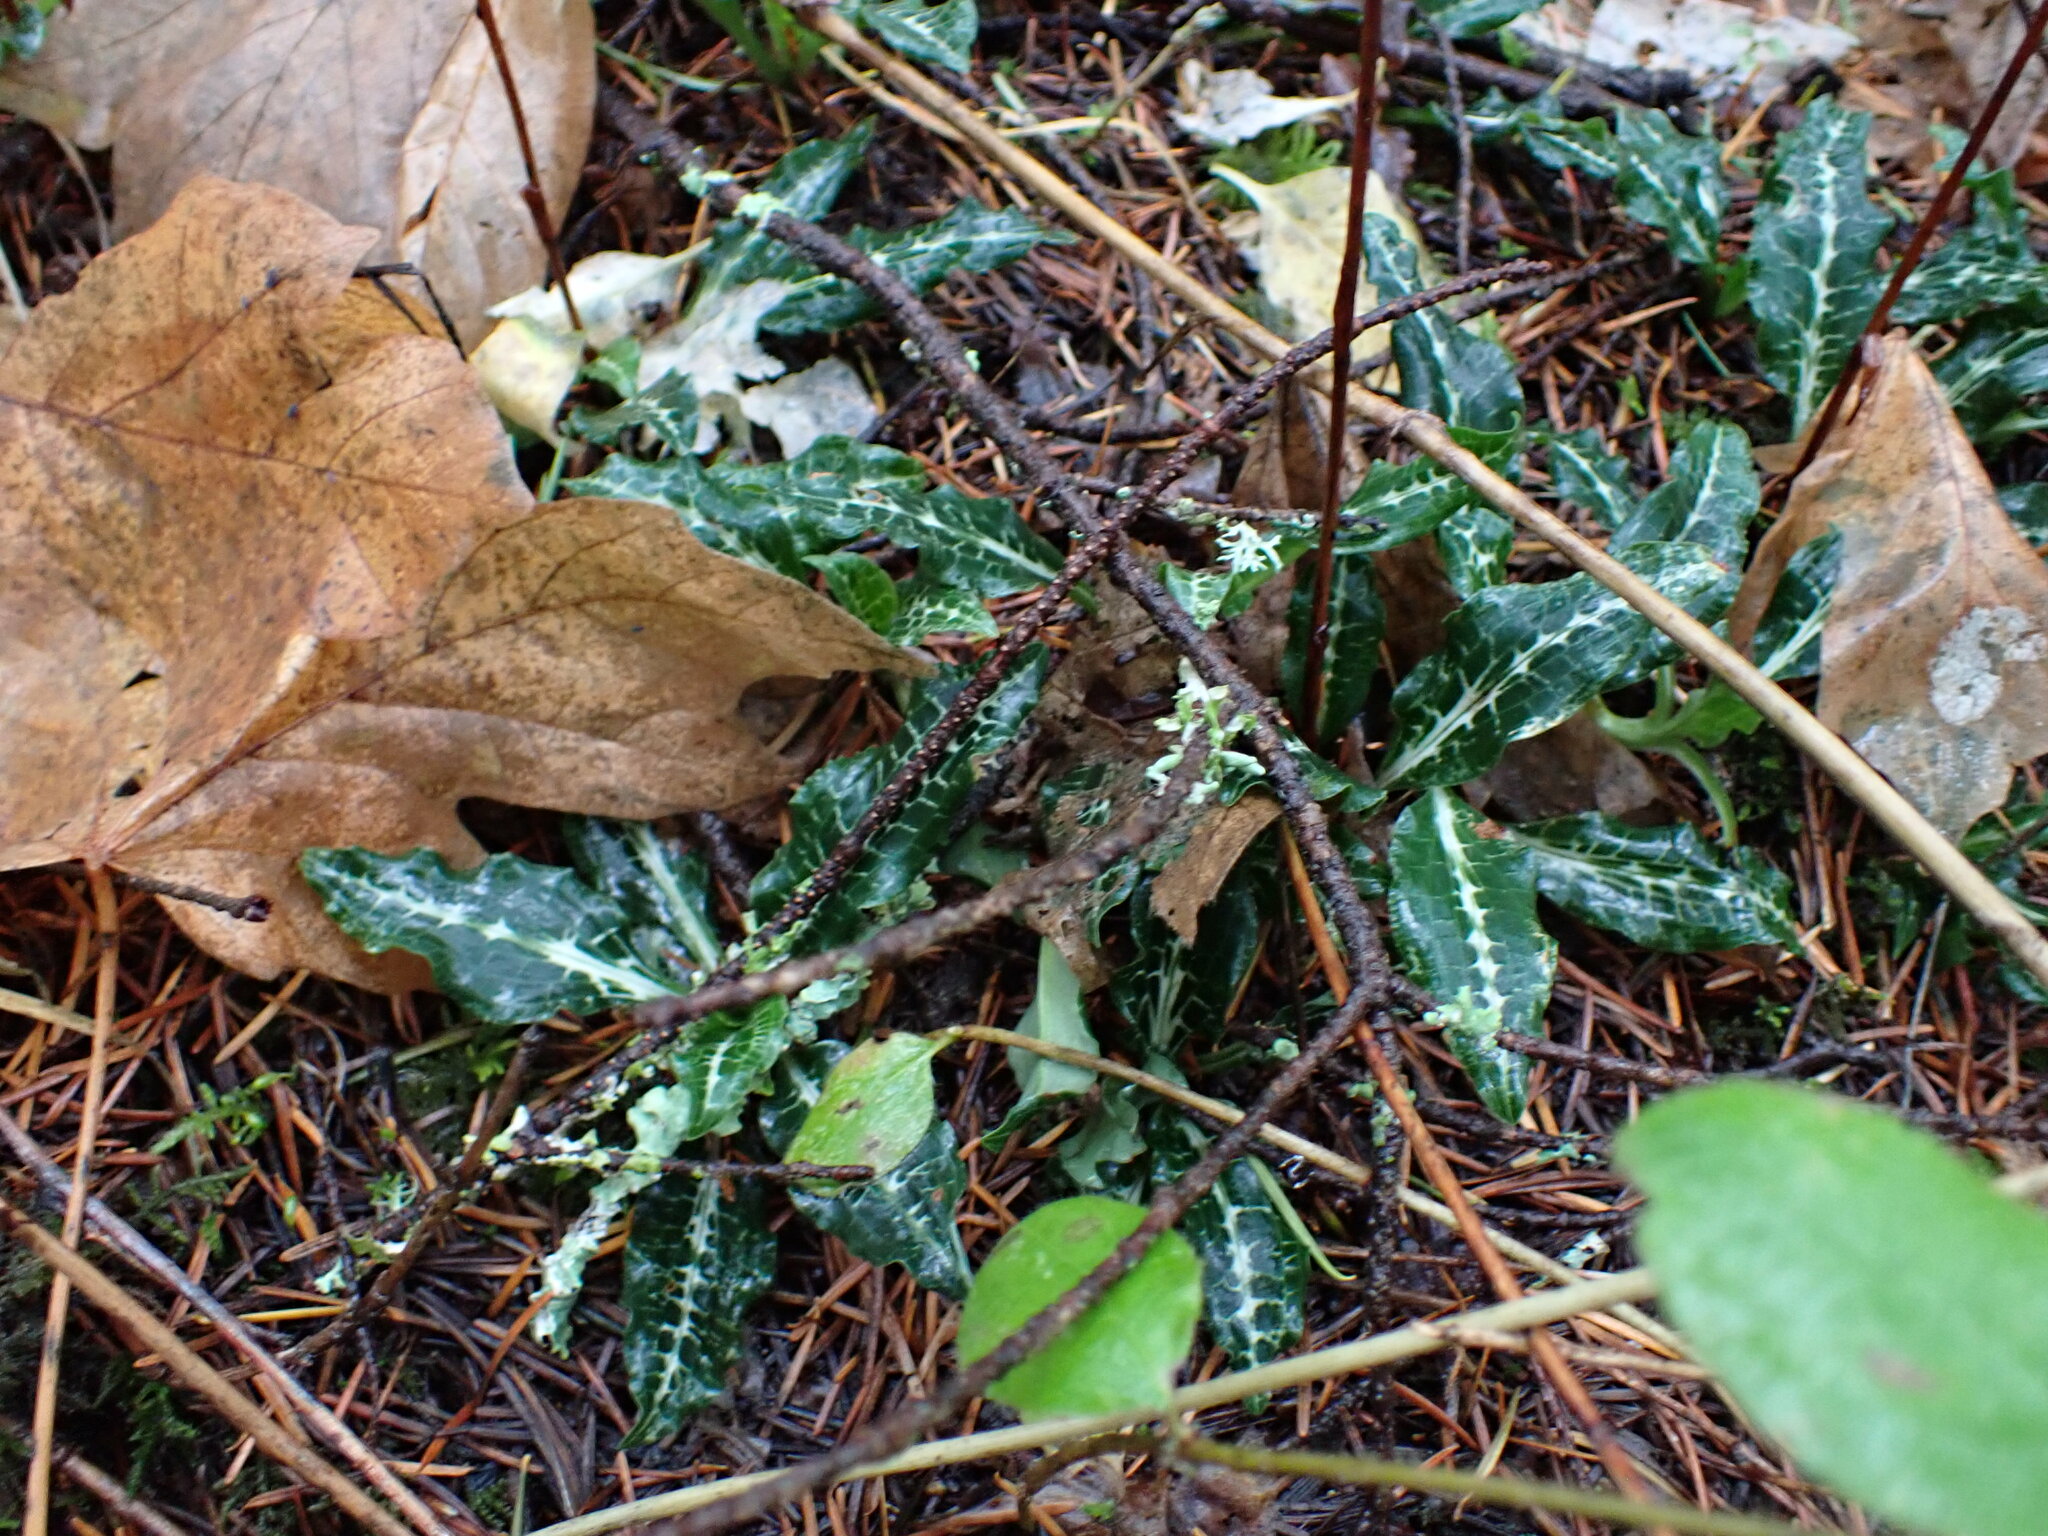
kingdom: Plantae
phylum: Tracheophyta
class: Liliopsida
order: Asparagales
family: Orchidaceae
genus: Goodyera
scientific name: Goodyera oblongifolia
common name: Giant rattlesnake-plantain
